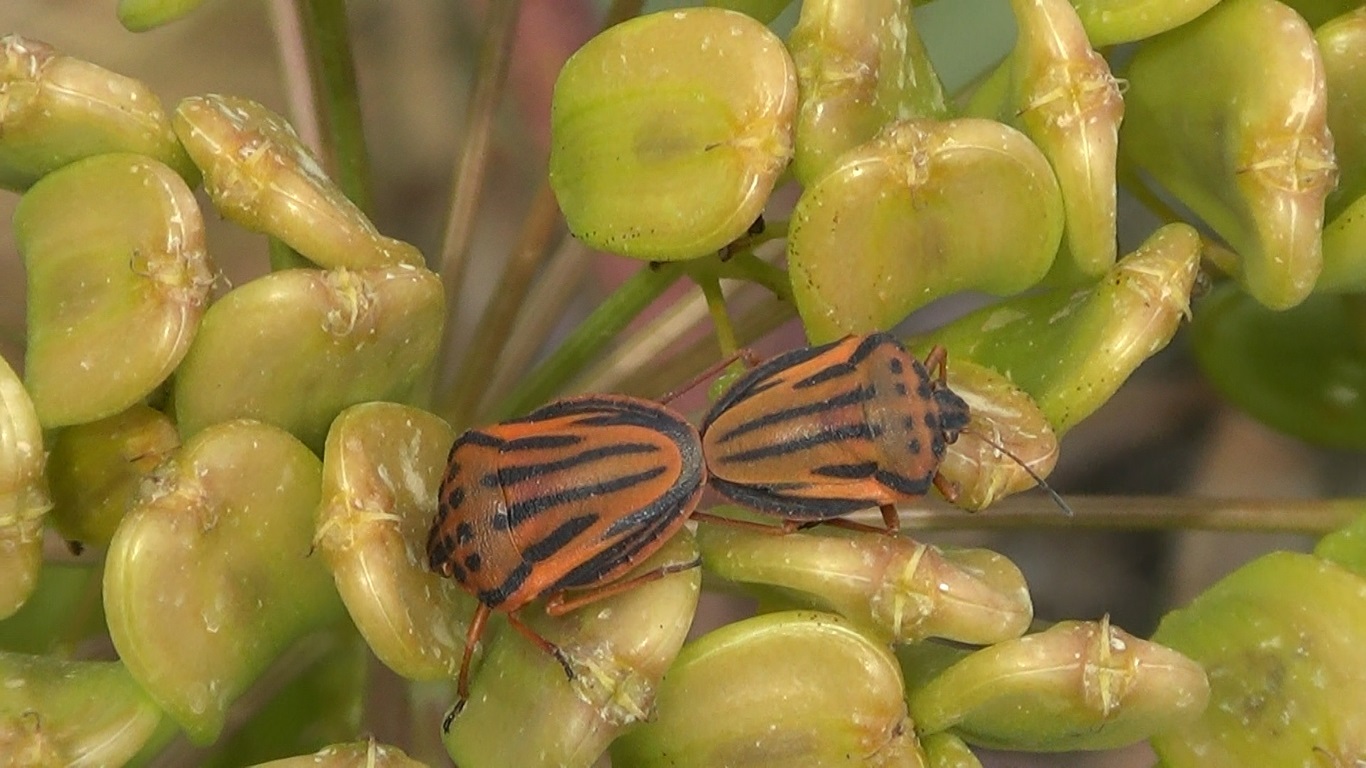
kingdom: Animalia
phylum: Arthropoda
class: Insecta
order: Hemiptera
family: Pentatomidae
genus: Graphosoma
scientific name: Graphosoma semipunctatum
